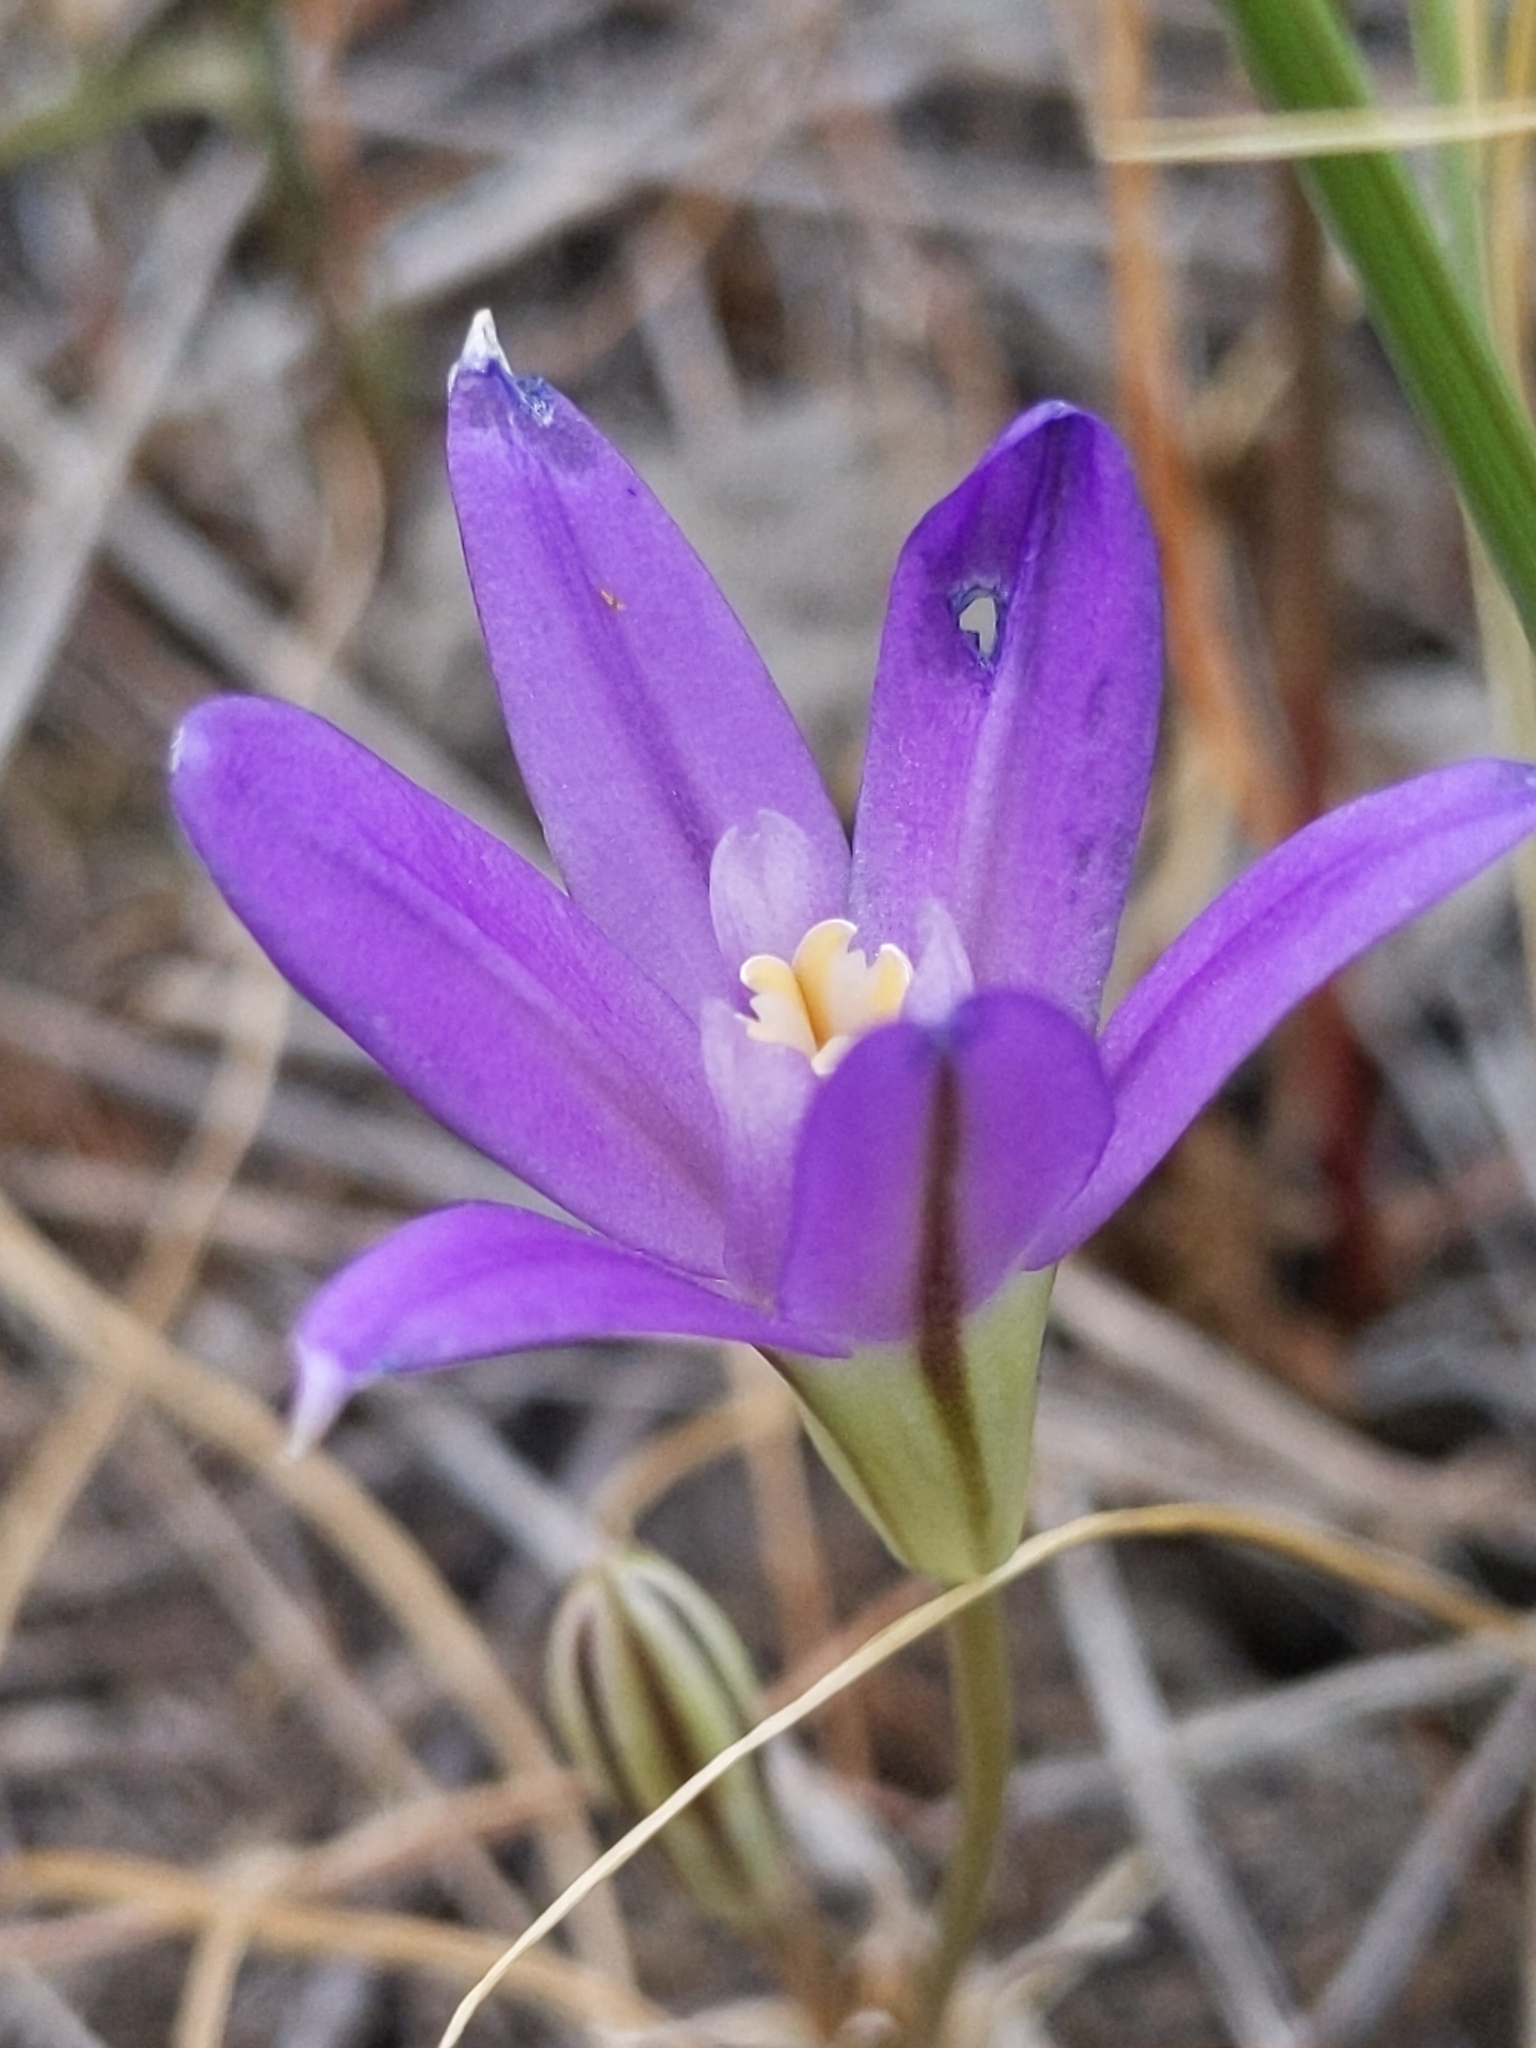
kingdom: Plantae
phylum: Tracheophyta
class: Liliopsida
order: Asparagales
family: Asparagaceae
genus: Brodiaea
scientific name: Brodiaea terrestris
